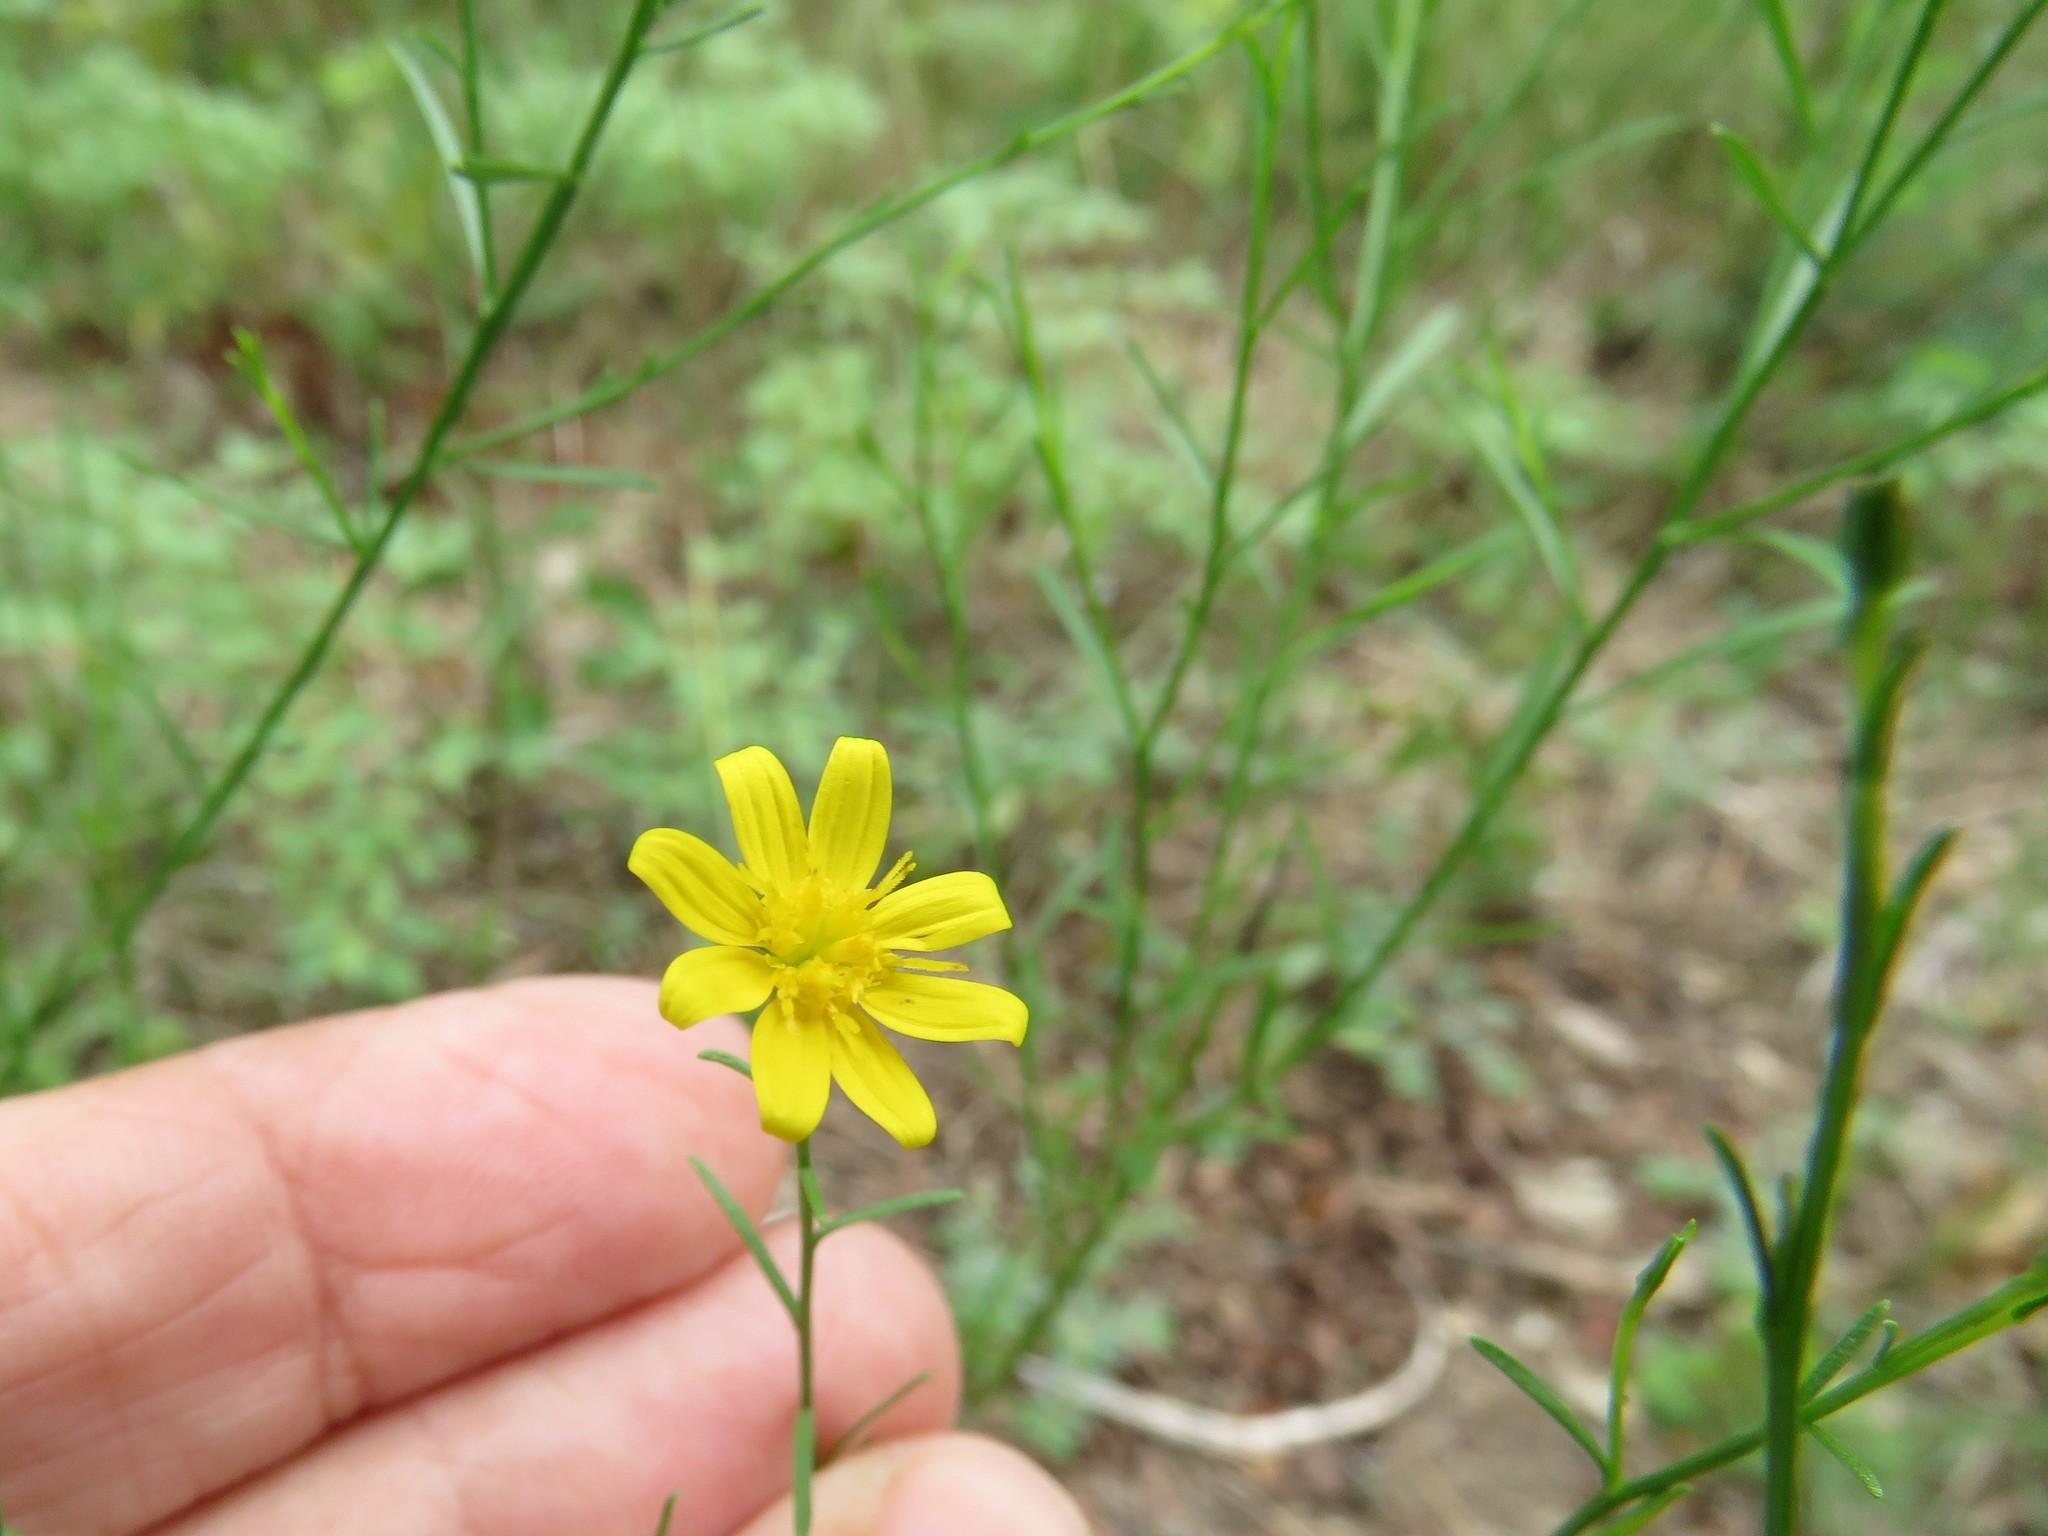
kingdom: Plantae
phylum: Tracheophyta
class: Magnoliopsida
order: Asterales
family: Asteraceae
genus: Gutierrezia
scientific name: Gutierrezia texana
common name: Texas snakeweed
